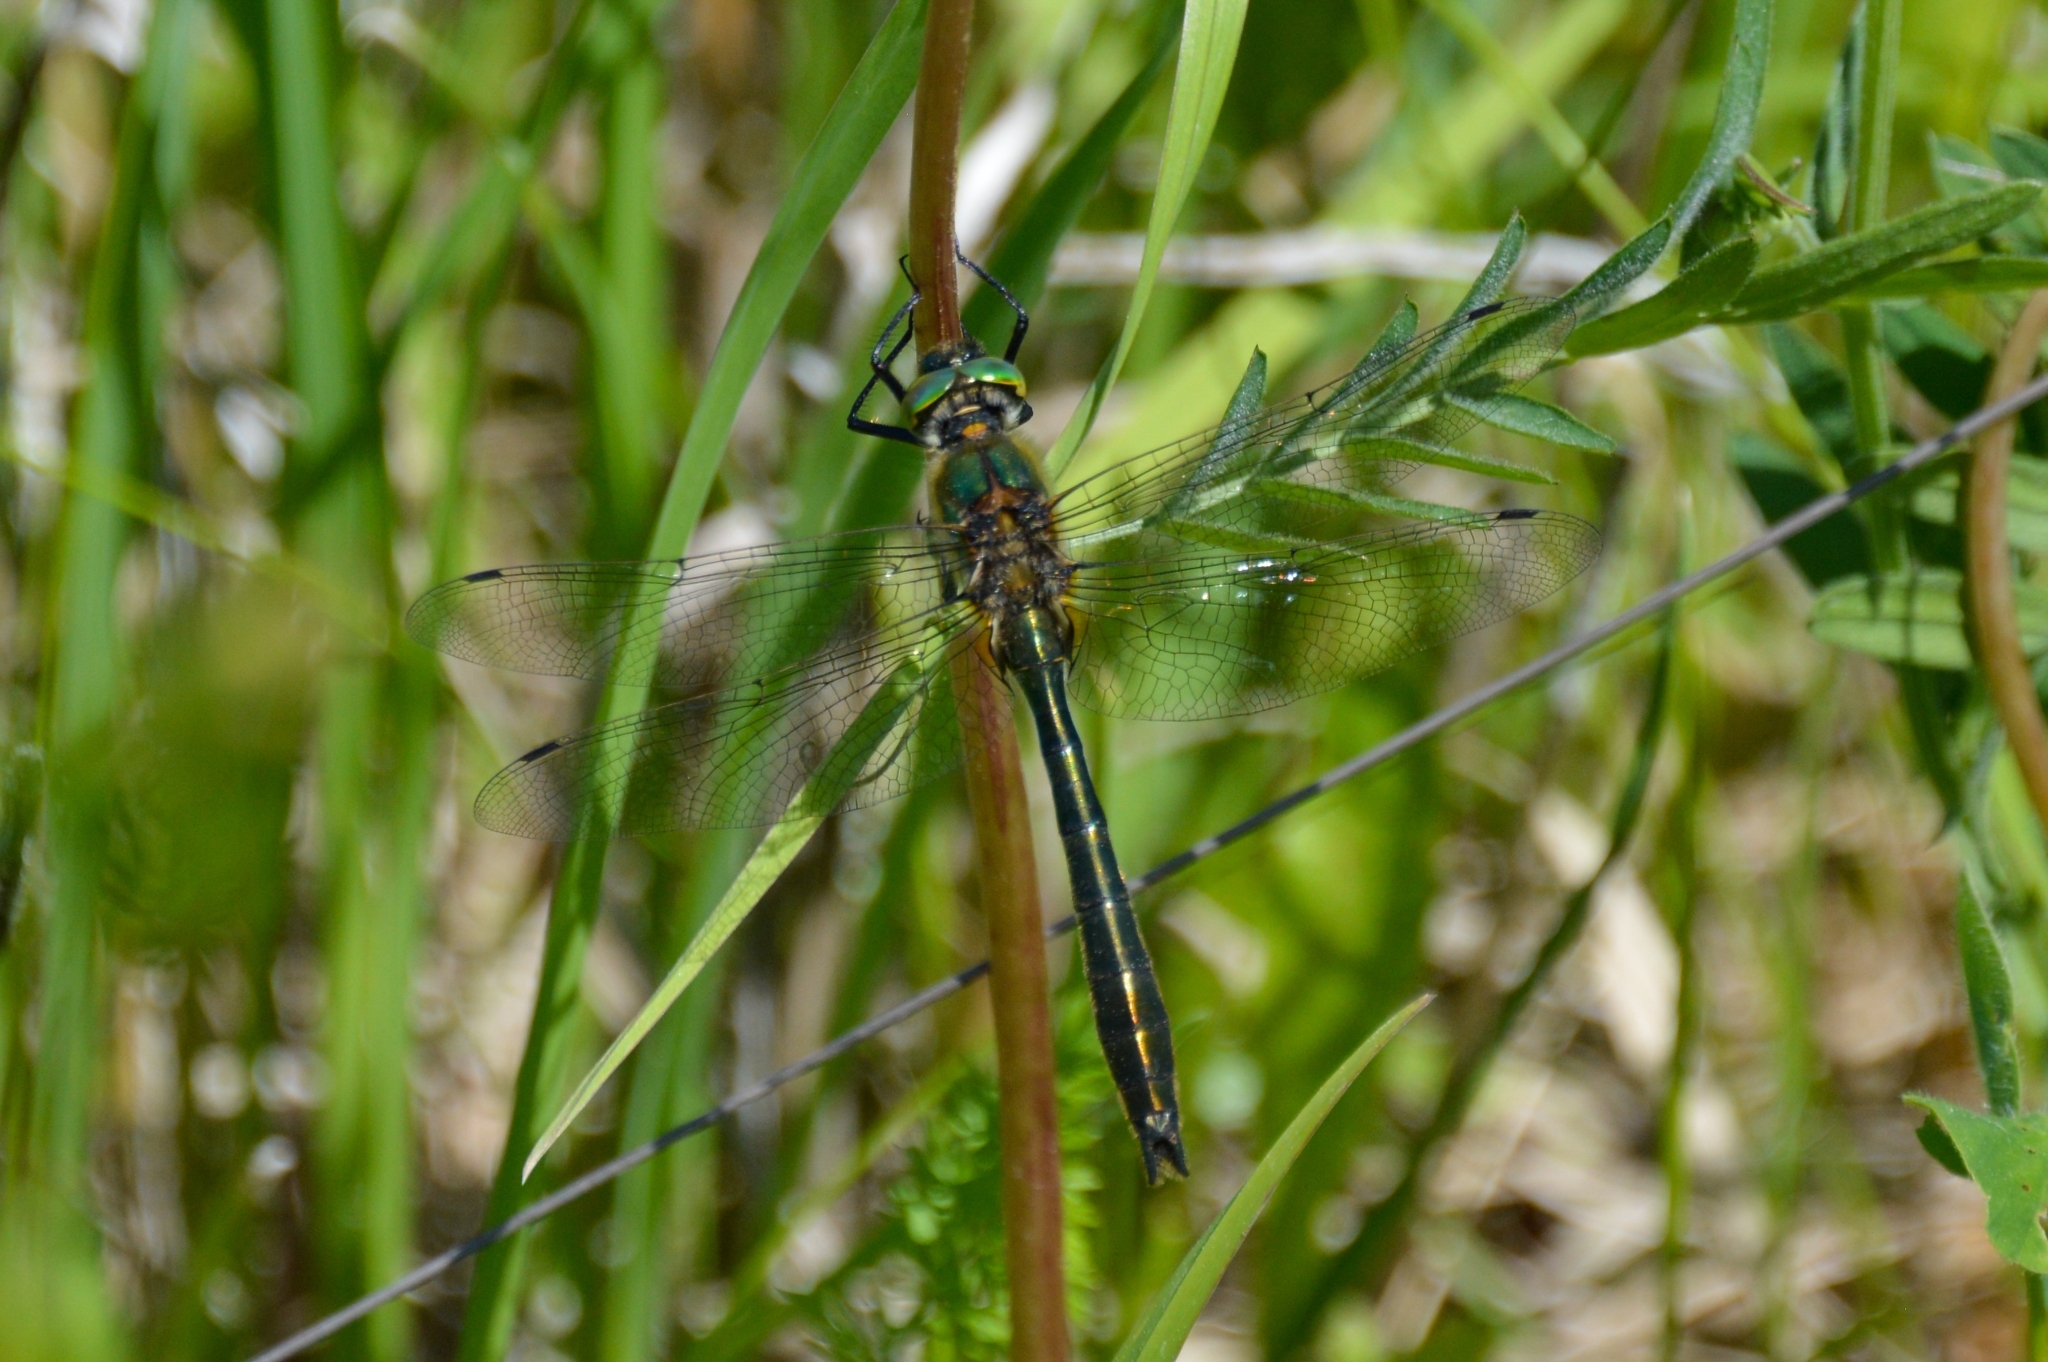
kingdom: Animalia
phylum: Arthropoda
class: Insecta
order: Odonata
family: Corduliidae
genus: Cordulia
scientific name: Cordulia aenea
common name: Downy emerald
